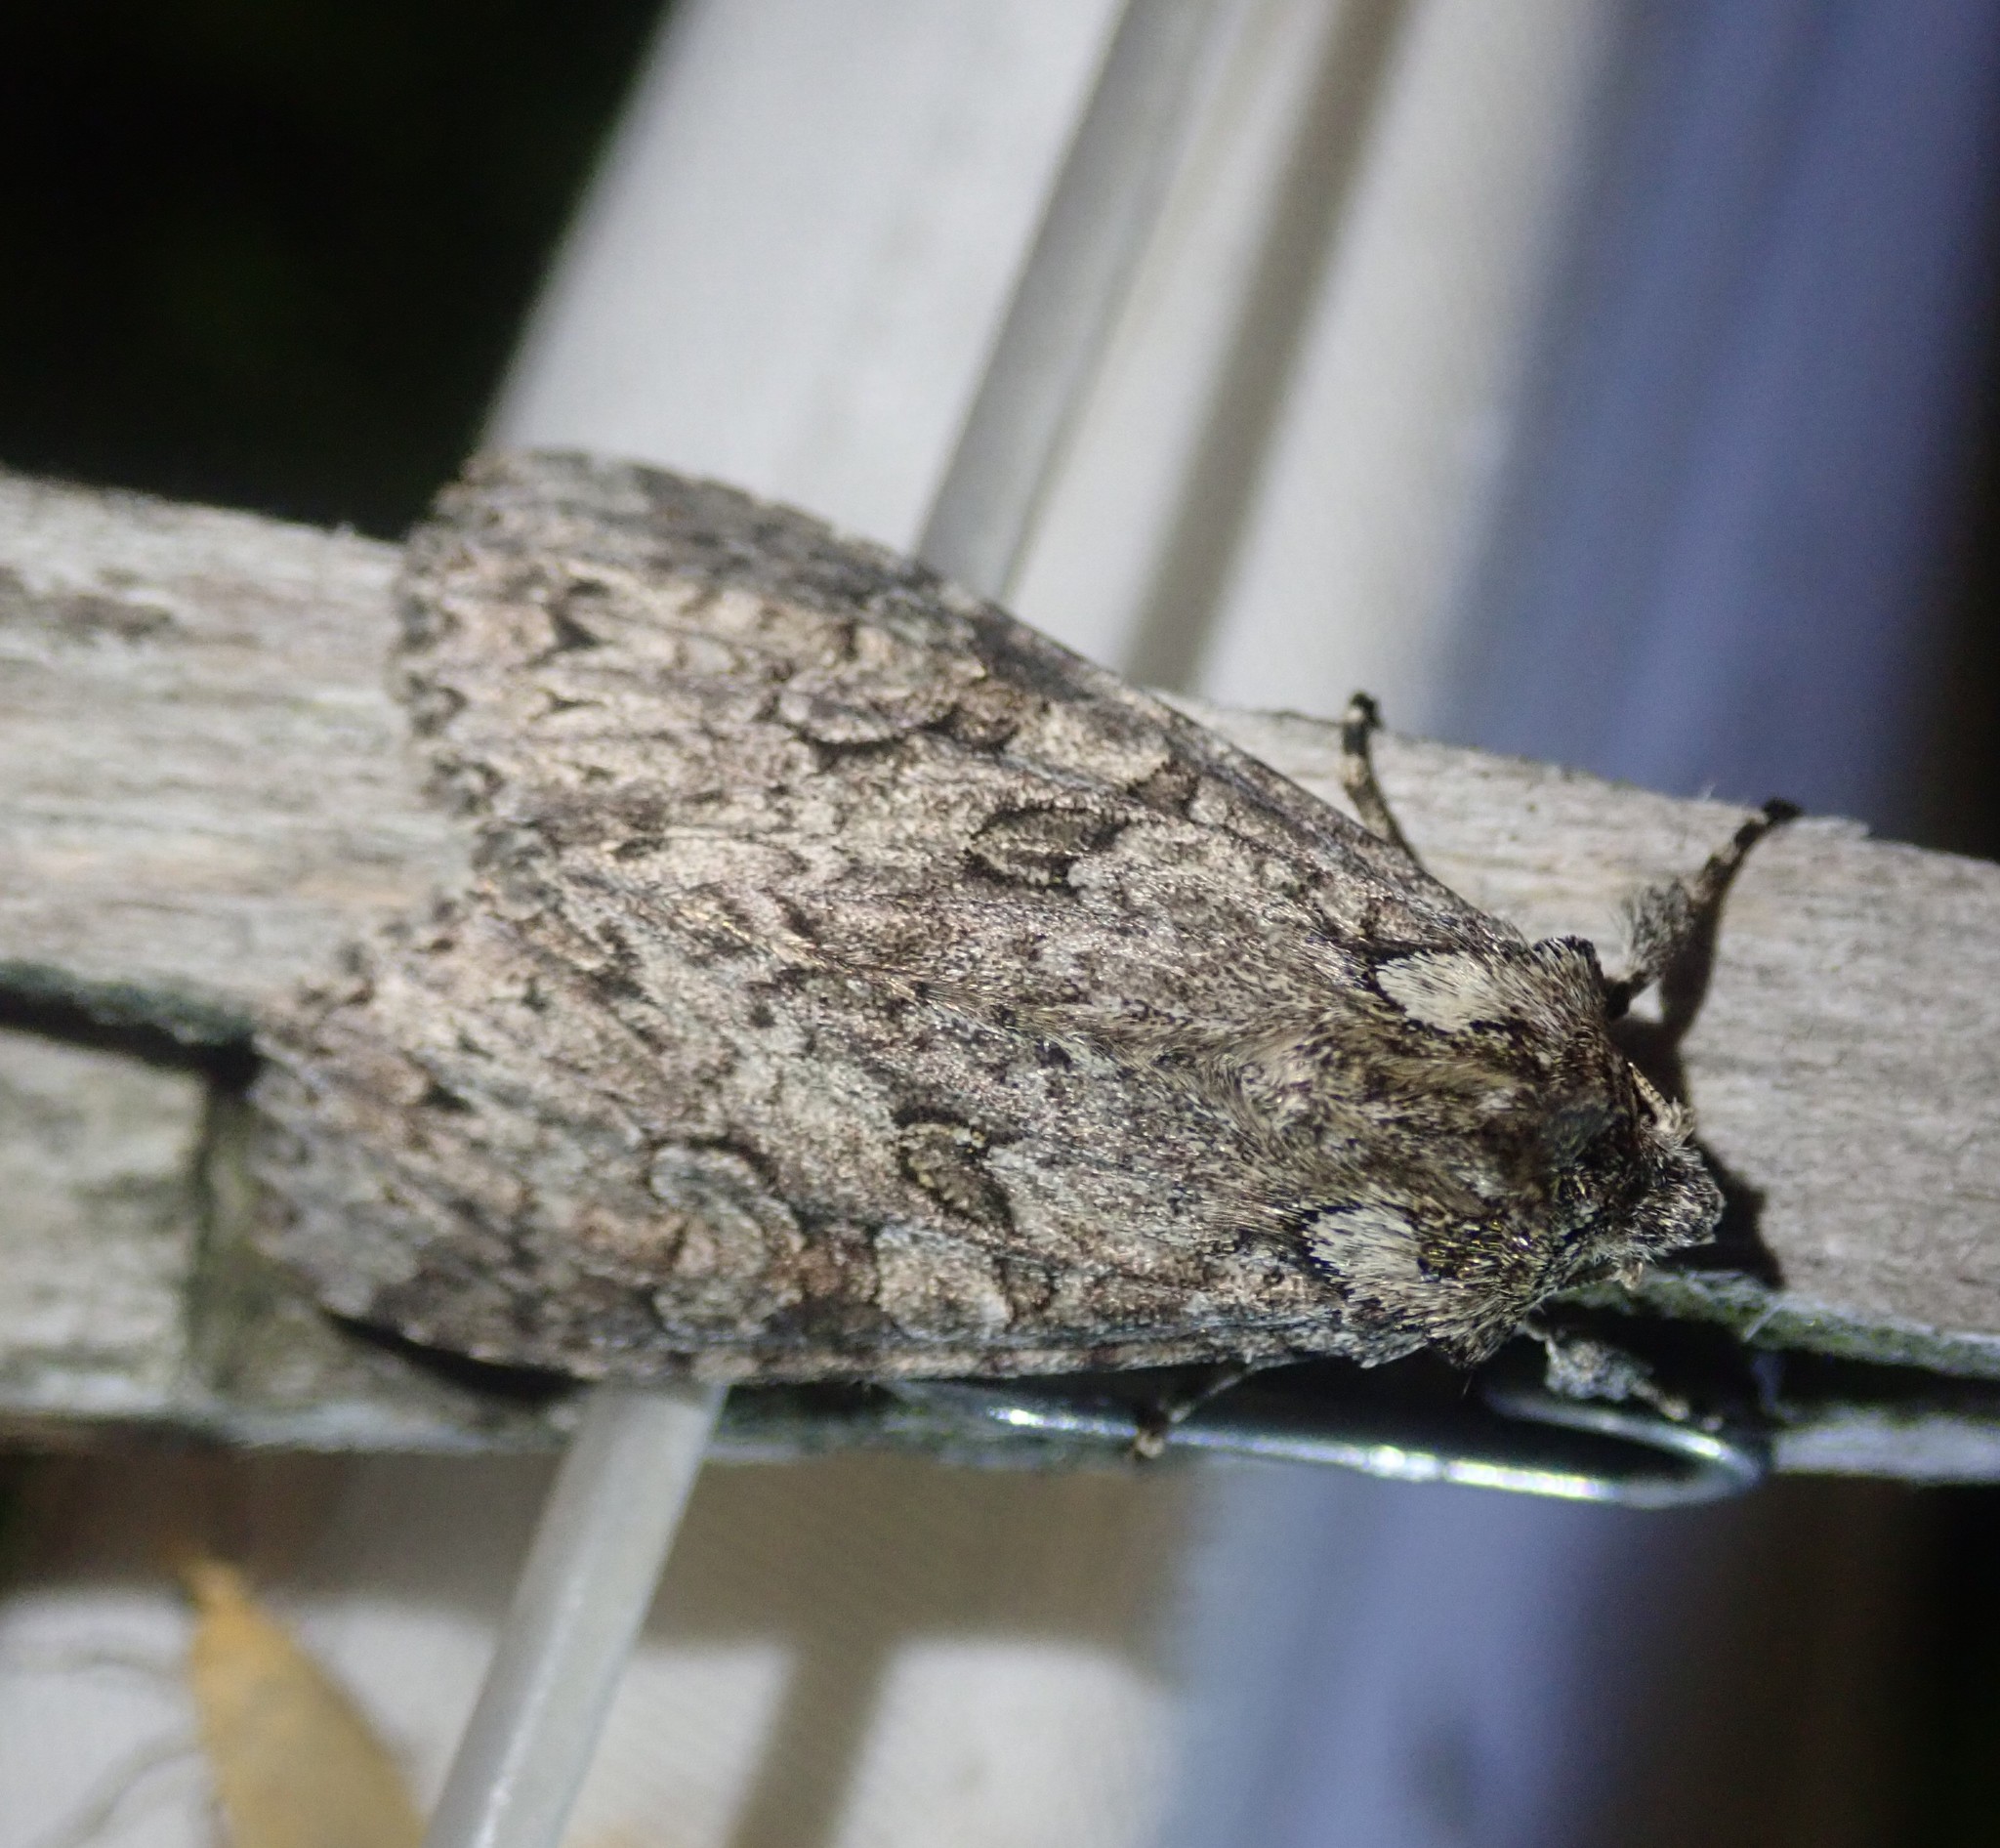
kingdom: Animalia
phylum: Arthropoda
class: Insecta
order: Lepidoptera
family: Noctuidae
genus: Polia
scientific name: Polia nebulosa
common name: Grey arches
